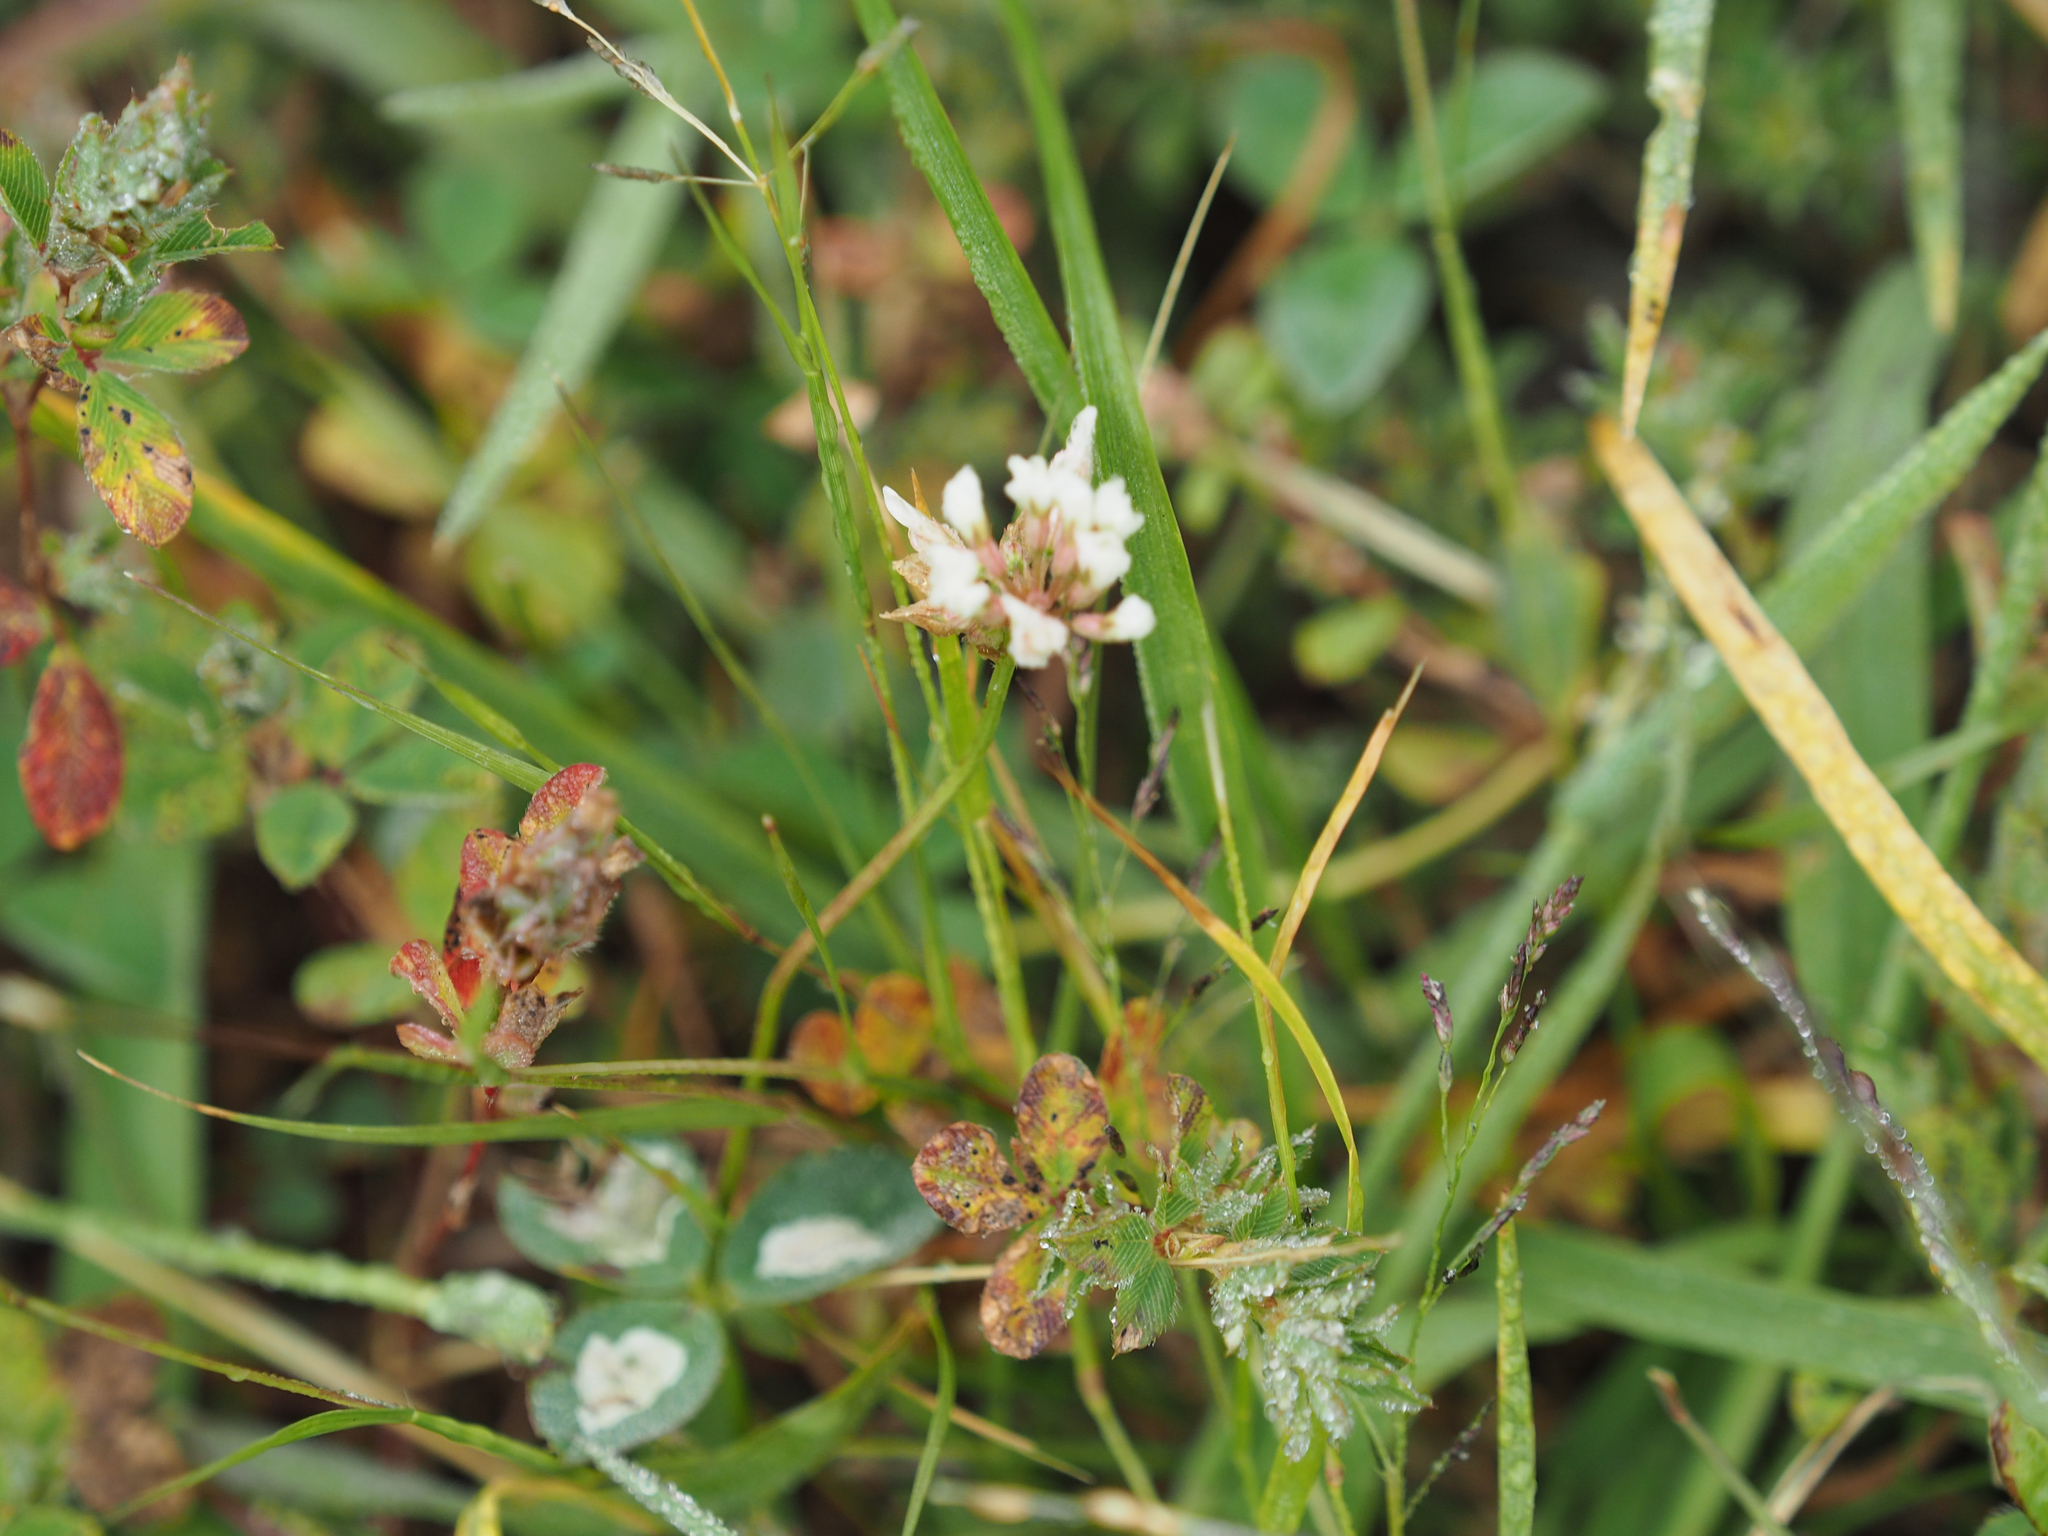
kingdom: Plantae
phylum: Tracheophyta
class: Magnoliopsida
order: Fabales
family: Fabaceae
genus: Trifolium
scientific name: Trifolium repens
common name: White clover
